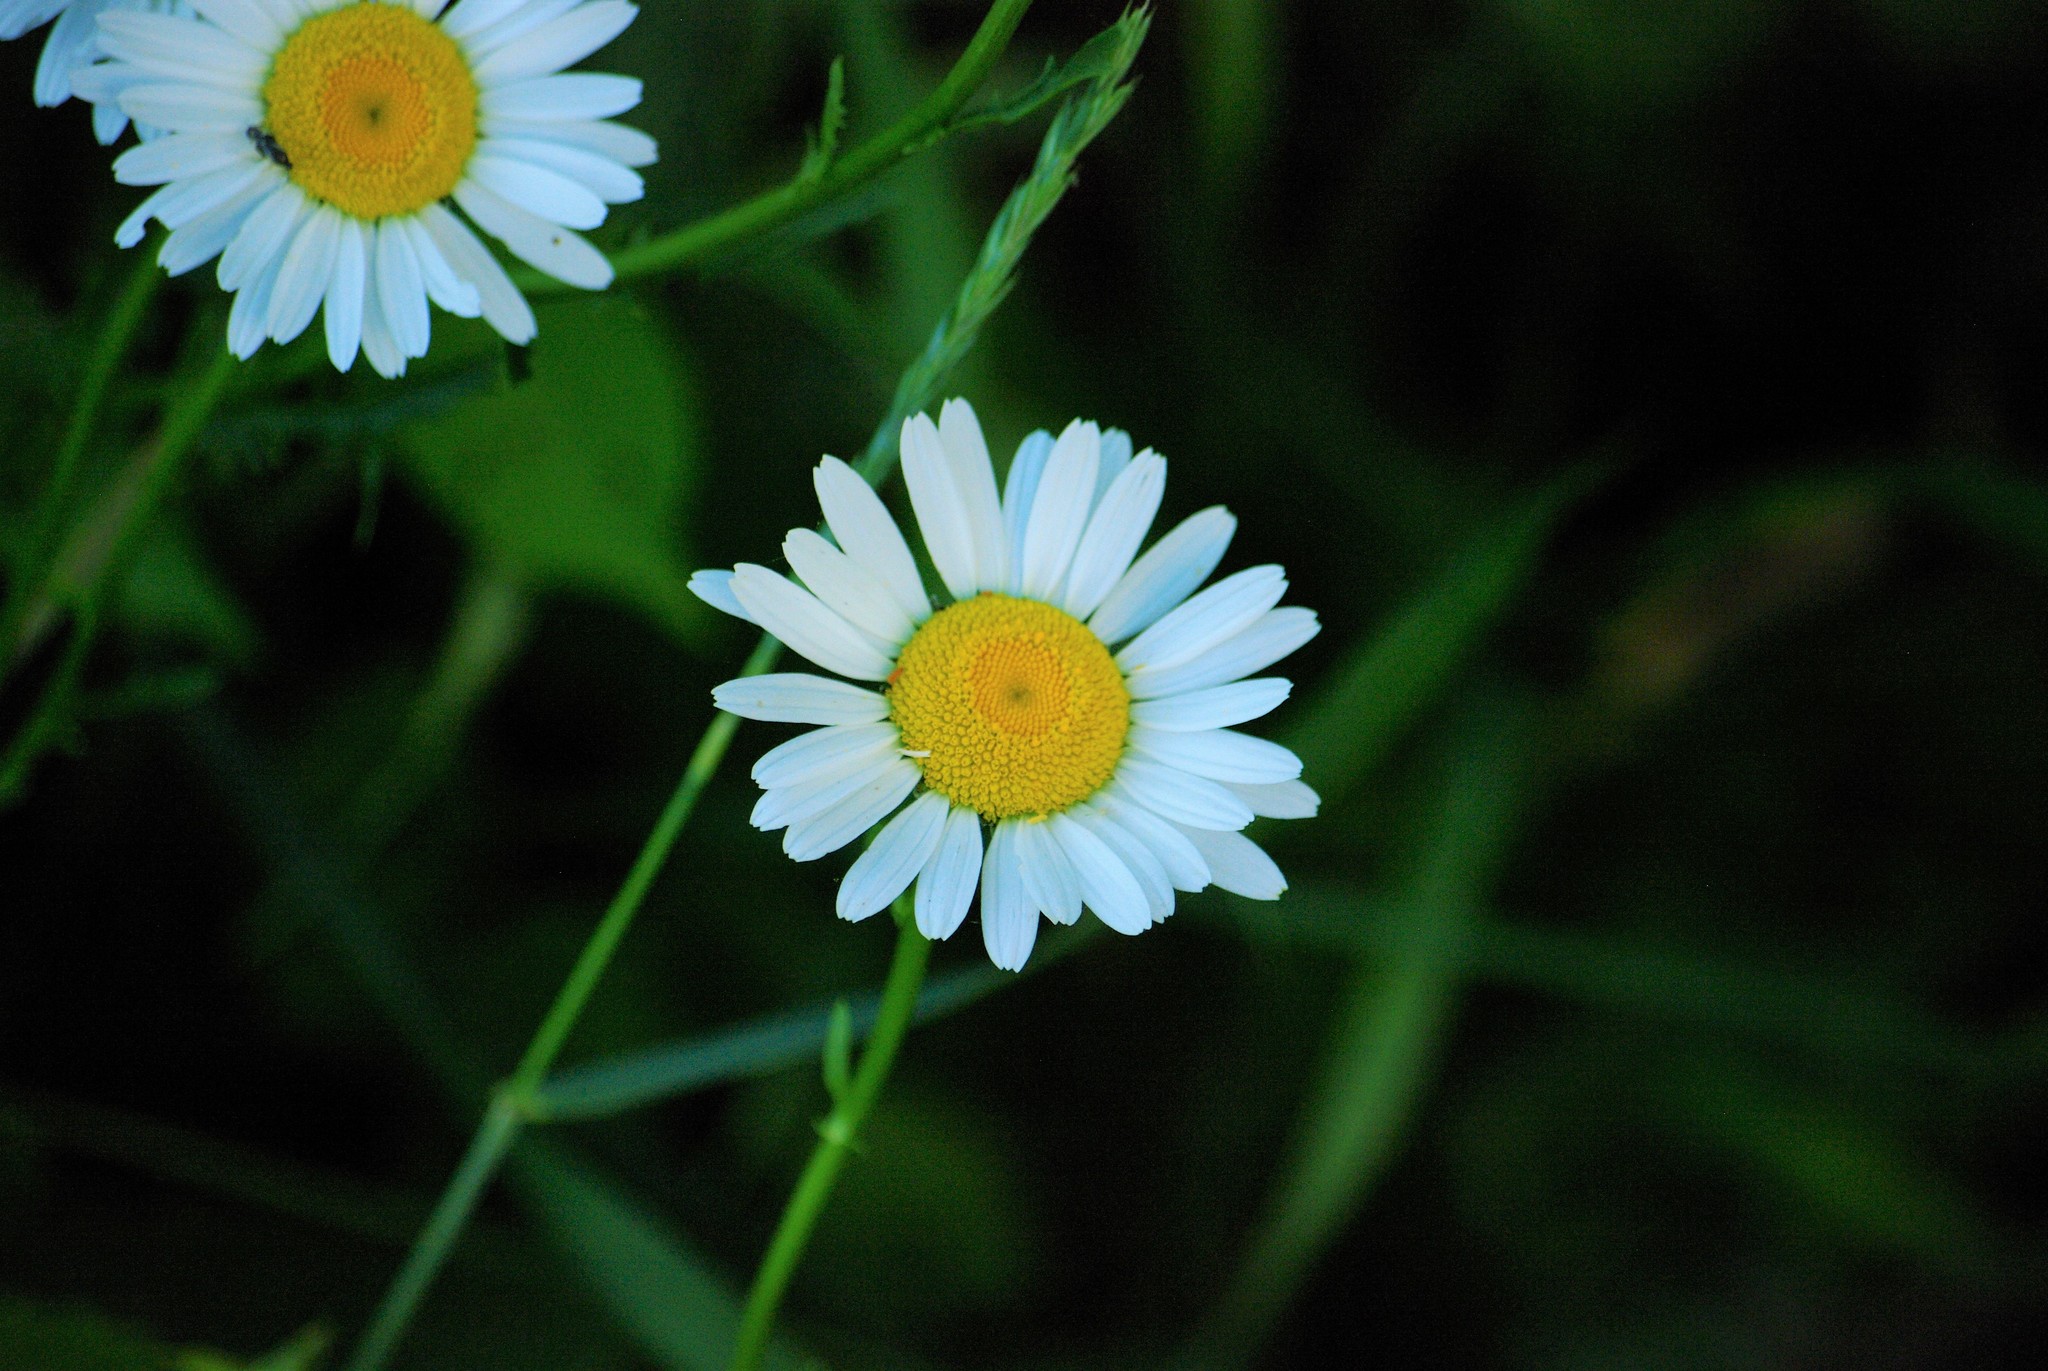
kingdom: Plantae
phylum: Tracheophyta
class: Magnoliopsida
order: Asterales
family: Asteraceae
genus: Leucanthemum
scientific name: Leucanthemum vulgare
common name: Oxeye daisy
